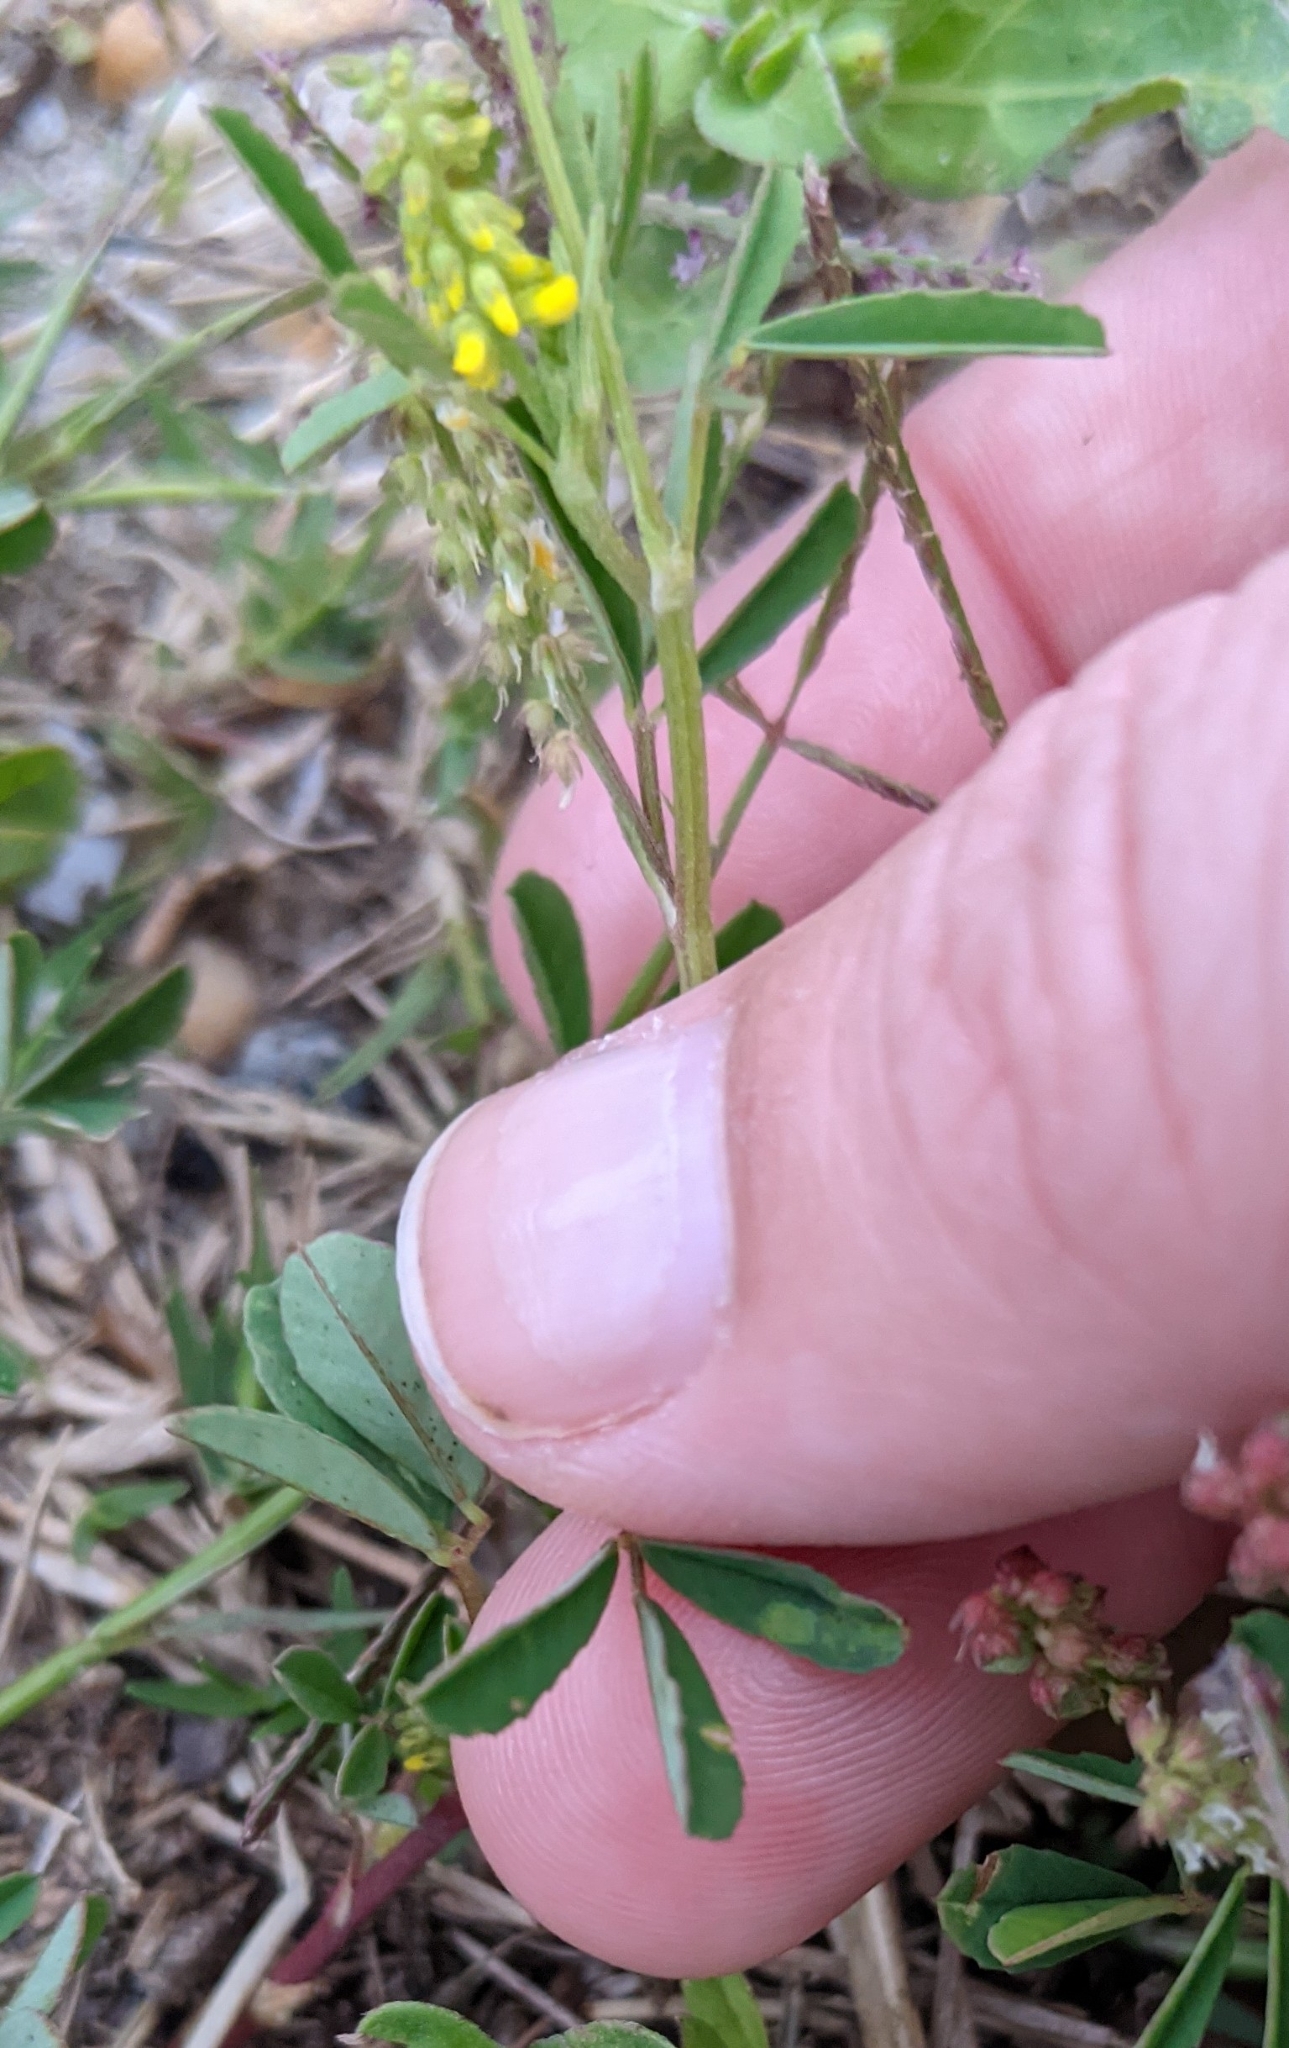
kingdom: Plantae
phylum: Tracheophyta
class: Magnoliopsida
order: Fabales
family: Fabaceae
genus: Melilotus
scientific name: Melilotus indicus
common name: Small melilot
